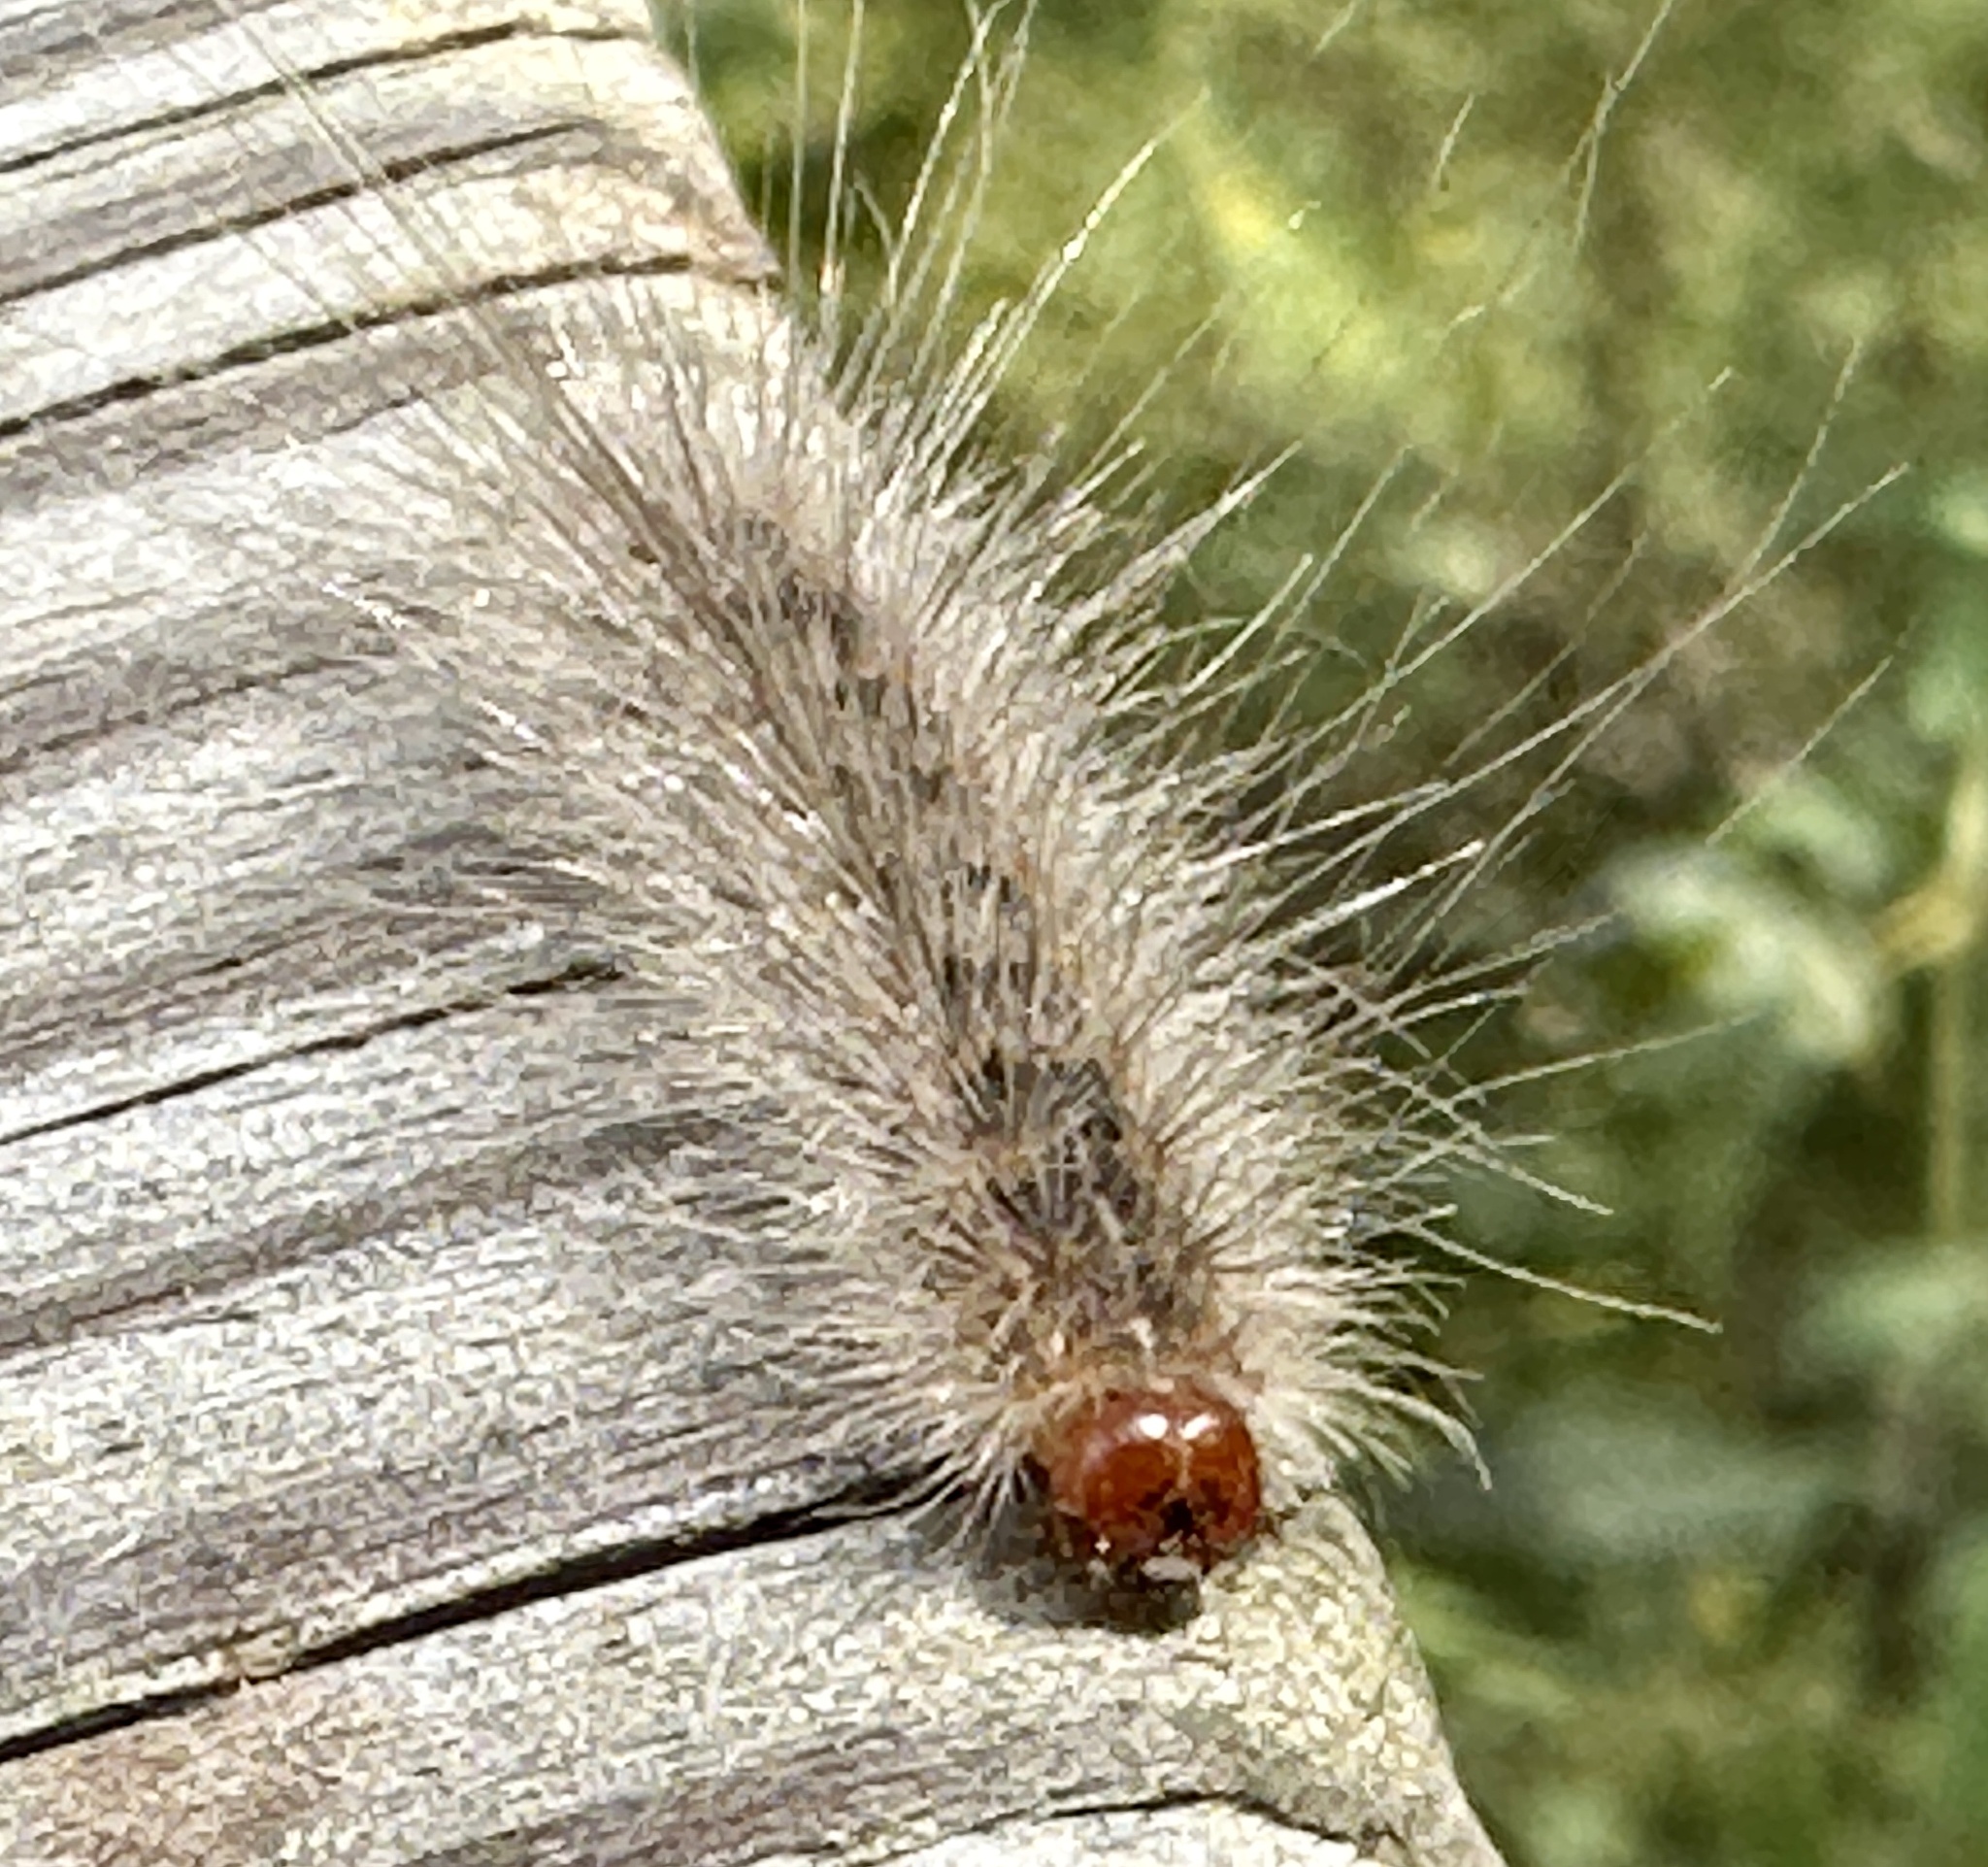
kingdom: Animalia
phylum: Arthropoda
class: Insecta
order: Lepidoptera
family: Erebidae
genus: Hyphantria
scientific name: Hyphantria cunea
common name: American white moth
